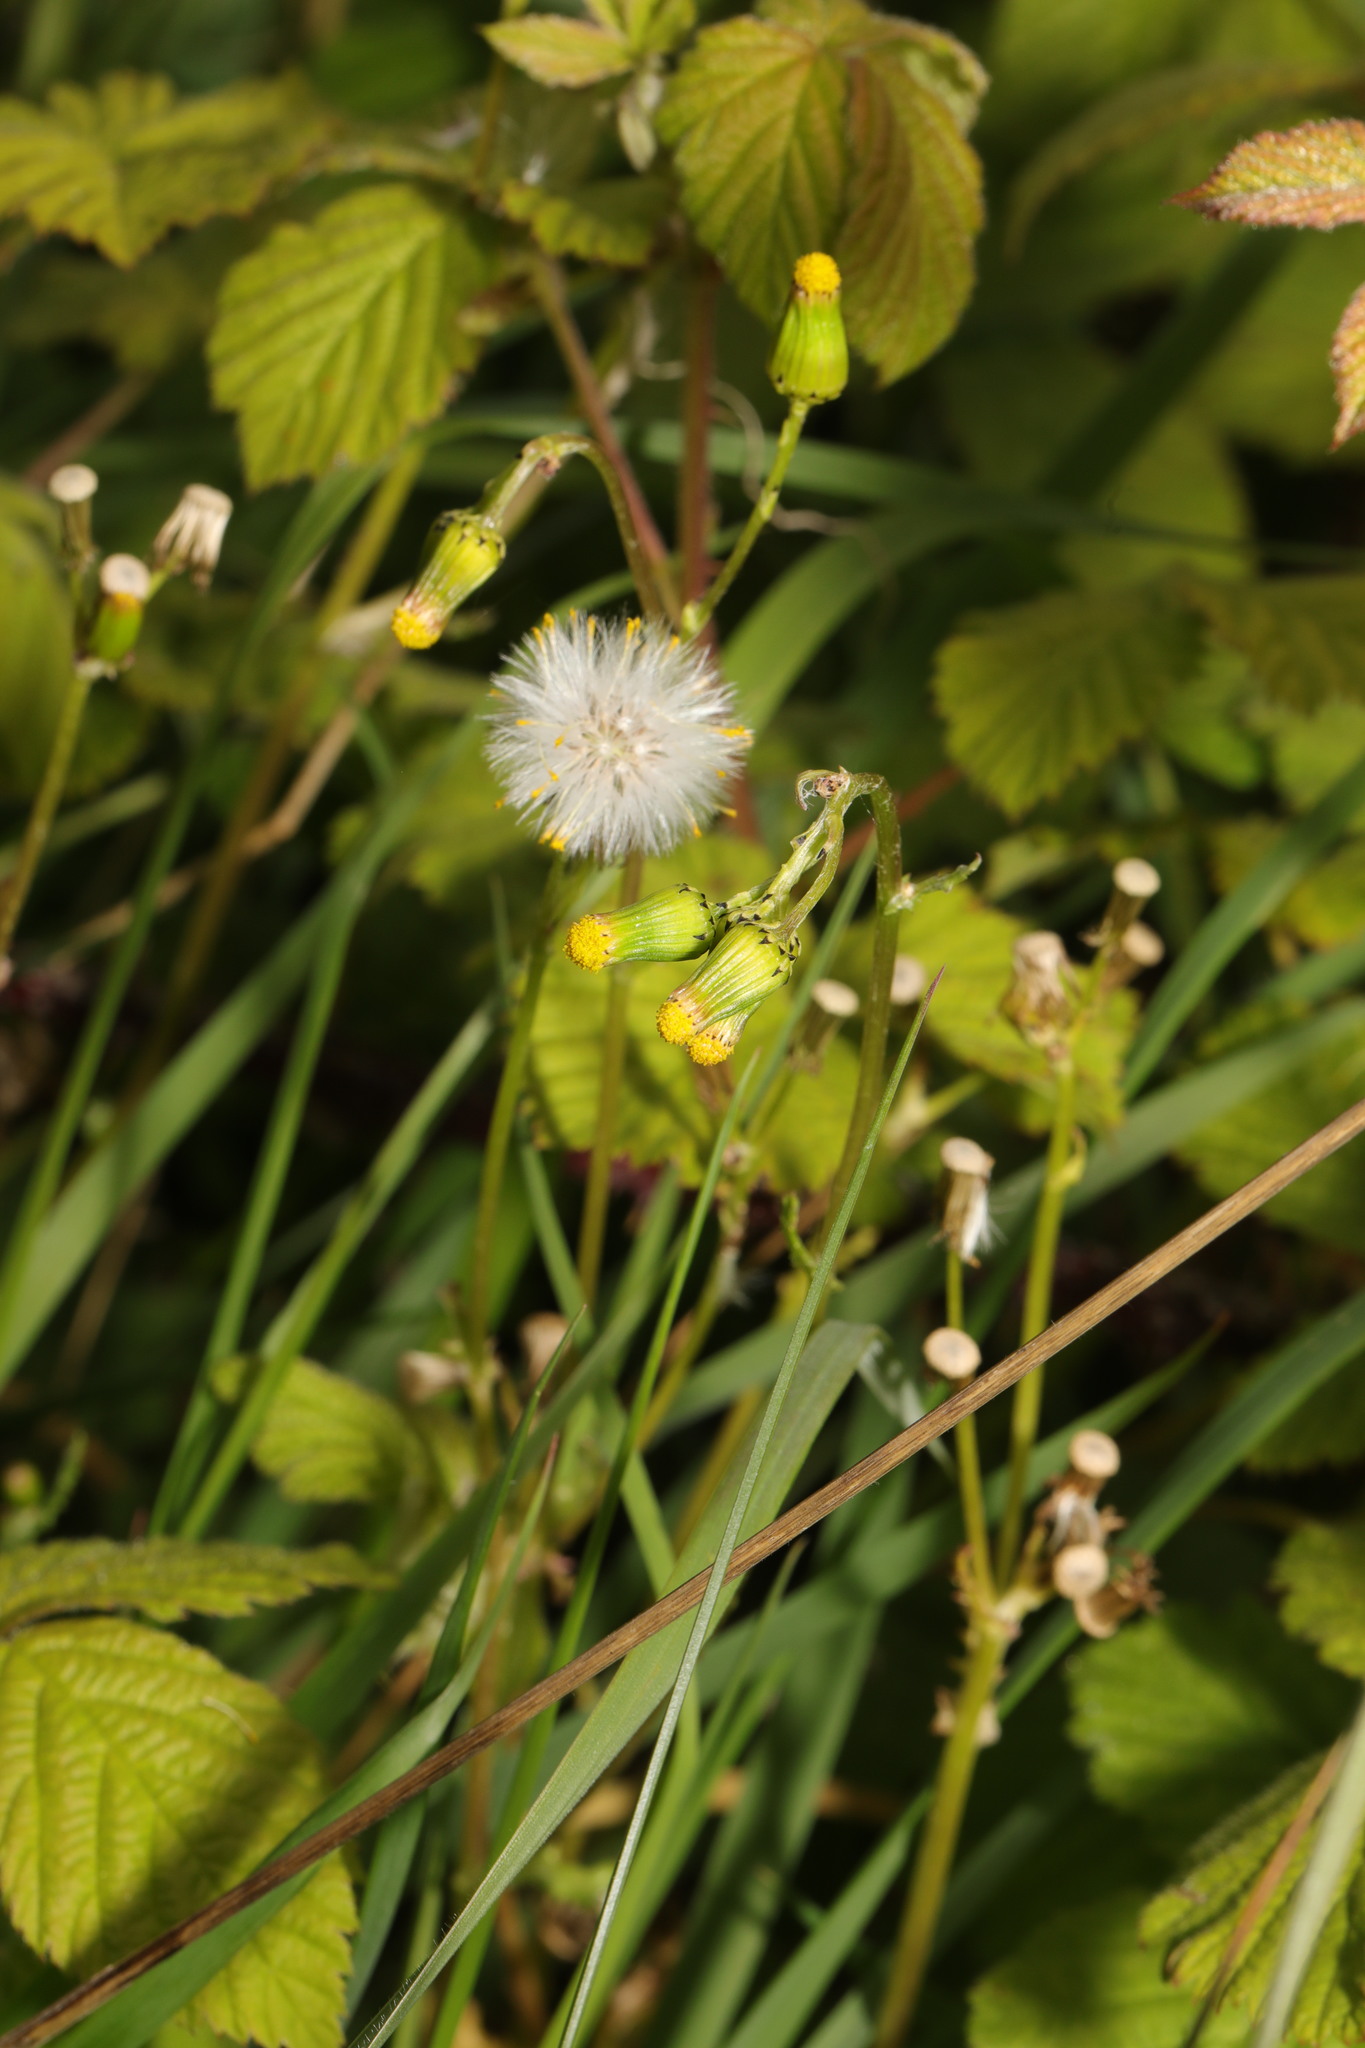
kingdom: Plantae
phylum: Tracheophyta
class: Magnoliopsida
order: Asterales
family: Asteraceae
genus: Senecio
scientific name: Senecio vulgaris
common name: Old-man-in-the-spring
